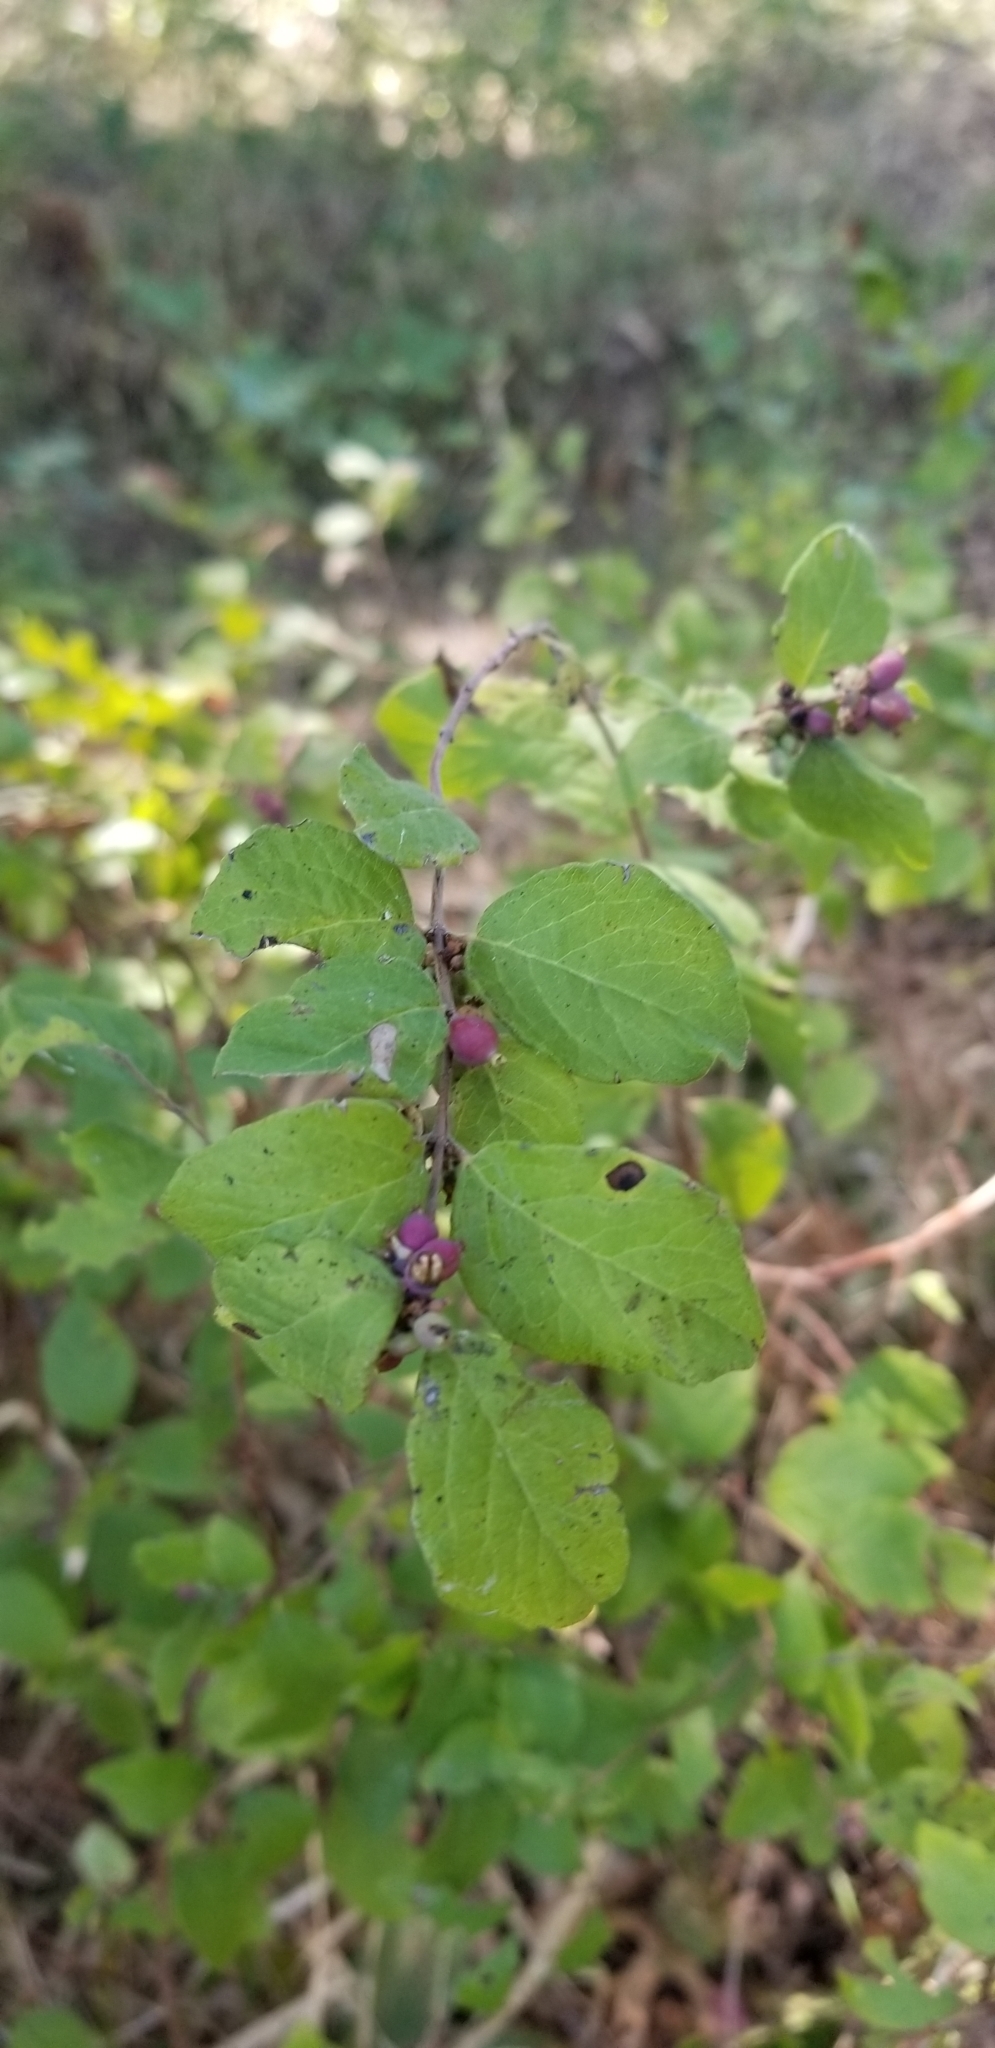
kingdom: Plantae
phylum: Tracheophyta
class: Magnoliopsida
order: Dipsacales
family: Caprifoliaceae
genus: Symphoricarpos
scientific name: Symphoricarpos orbiculatus
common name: Coralberry
